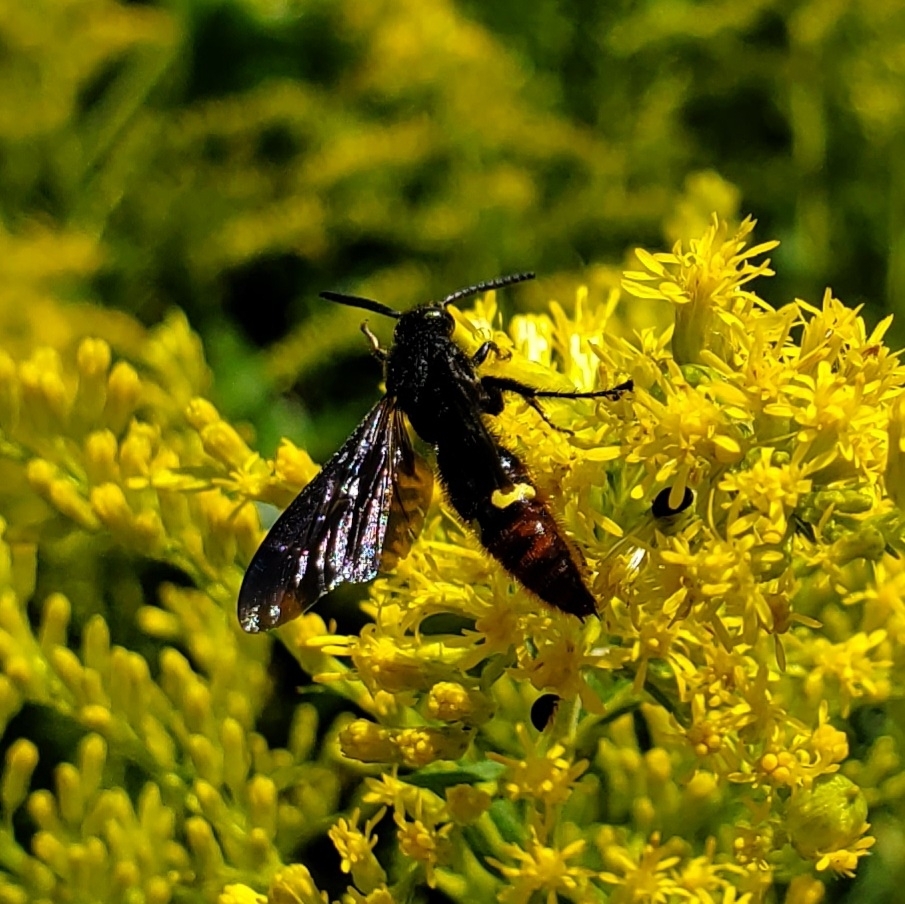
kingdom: Animalia
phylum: Arthropoda
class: Insecta
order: Hymenoptera
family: Scoliidae
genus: Scolia
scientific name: Scolia dubia
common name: Blue-winged scoliid wasp
